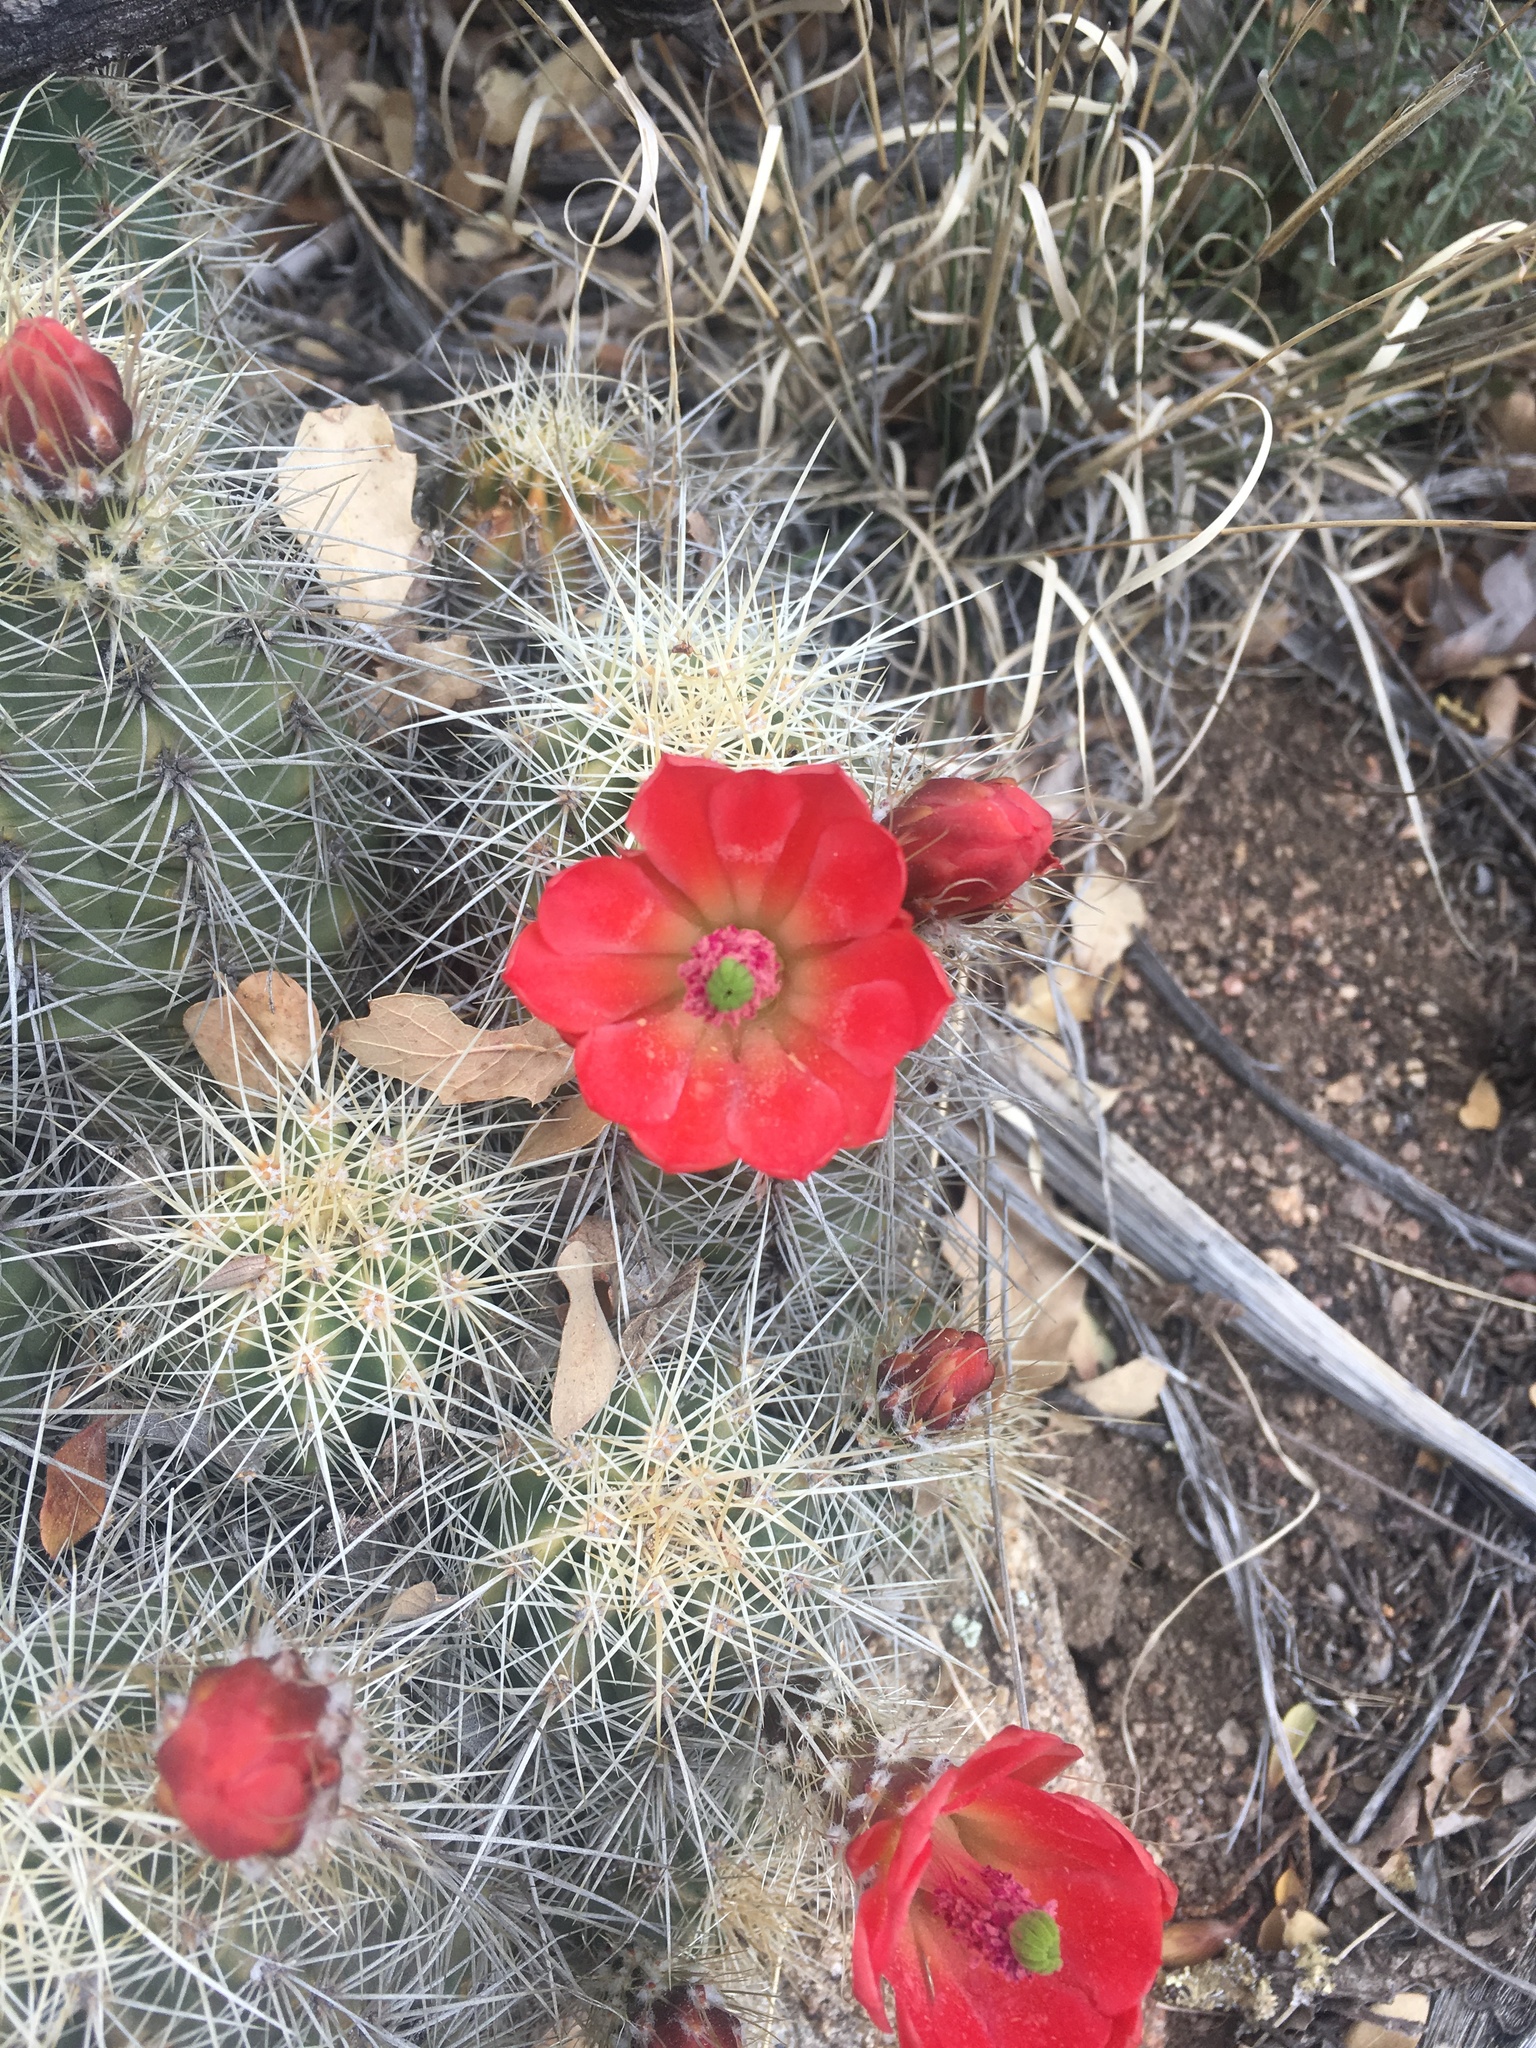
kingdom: Plantae
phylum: Tracheophyta
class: Magnoliopsida
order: Caryophyllales
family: Cactaceae
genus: Echinocereus
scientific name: Echinocereus coccineus
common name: Scarlet hedgehog cactus
